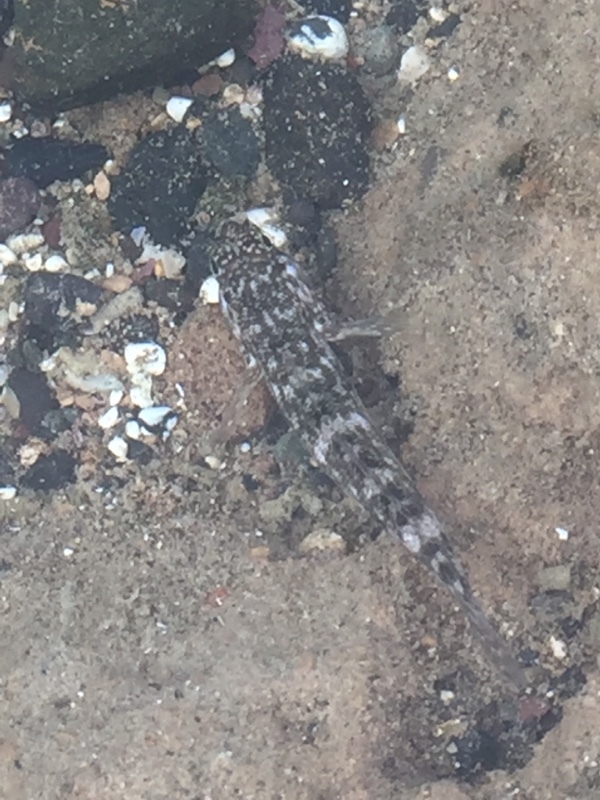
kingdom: Animalia
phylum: Chordata
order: Perciformes
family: Gobiidae
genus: Mauligobius
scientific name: Mauligobius maderensis
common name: Rock goby
